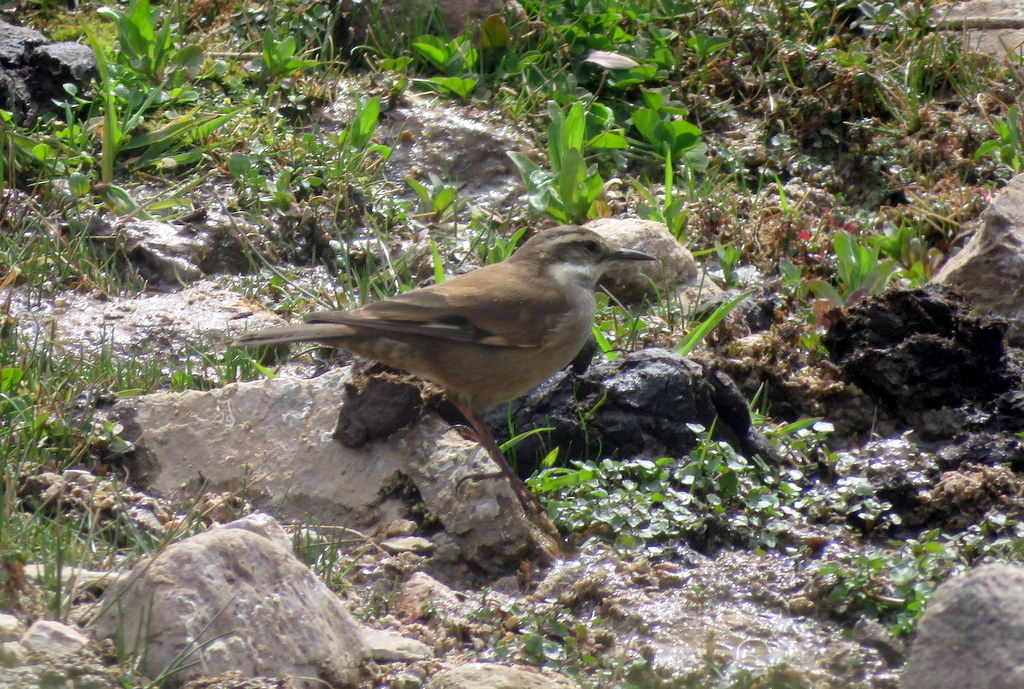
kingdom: Animalia
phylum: Chordata
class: Aves
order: Passeriformes
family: Furnariidae
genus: Cinclodes
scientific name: Cinclodes atacamensis
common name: White-winged cinclodes
